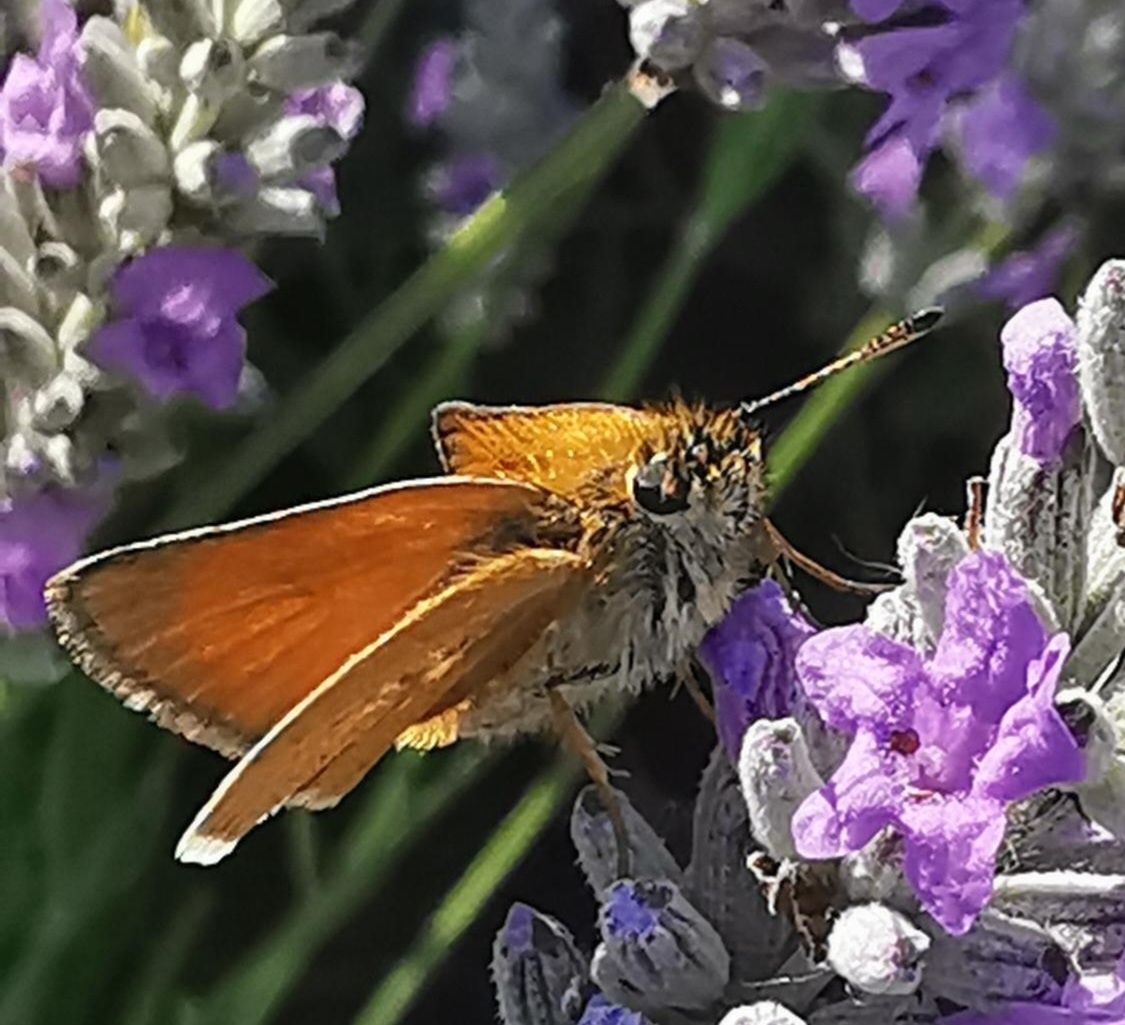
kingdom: Animalia
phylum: Arthropoda
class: Insecta
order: Lepidoptera
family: Hesperiidae
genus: Thymelicus
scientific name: Thymelicus lineola
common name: Essex skipper
